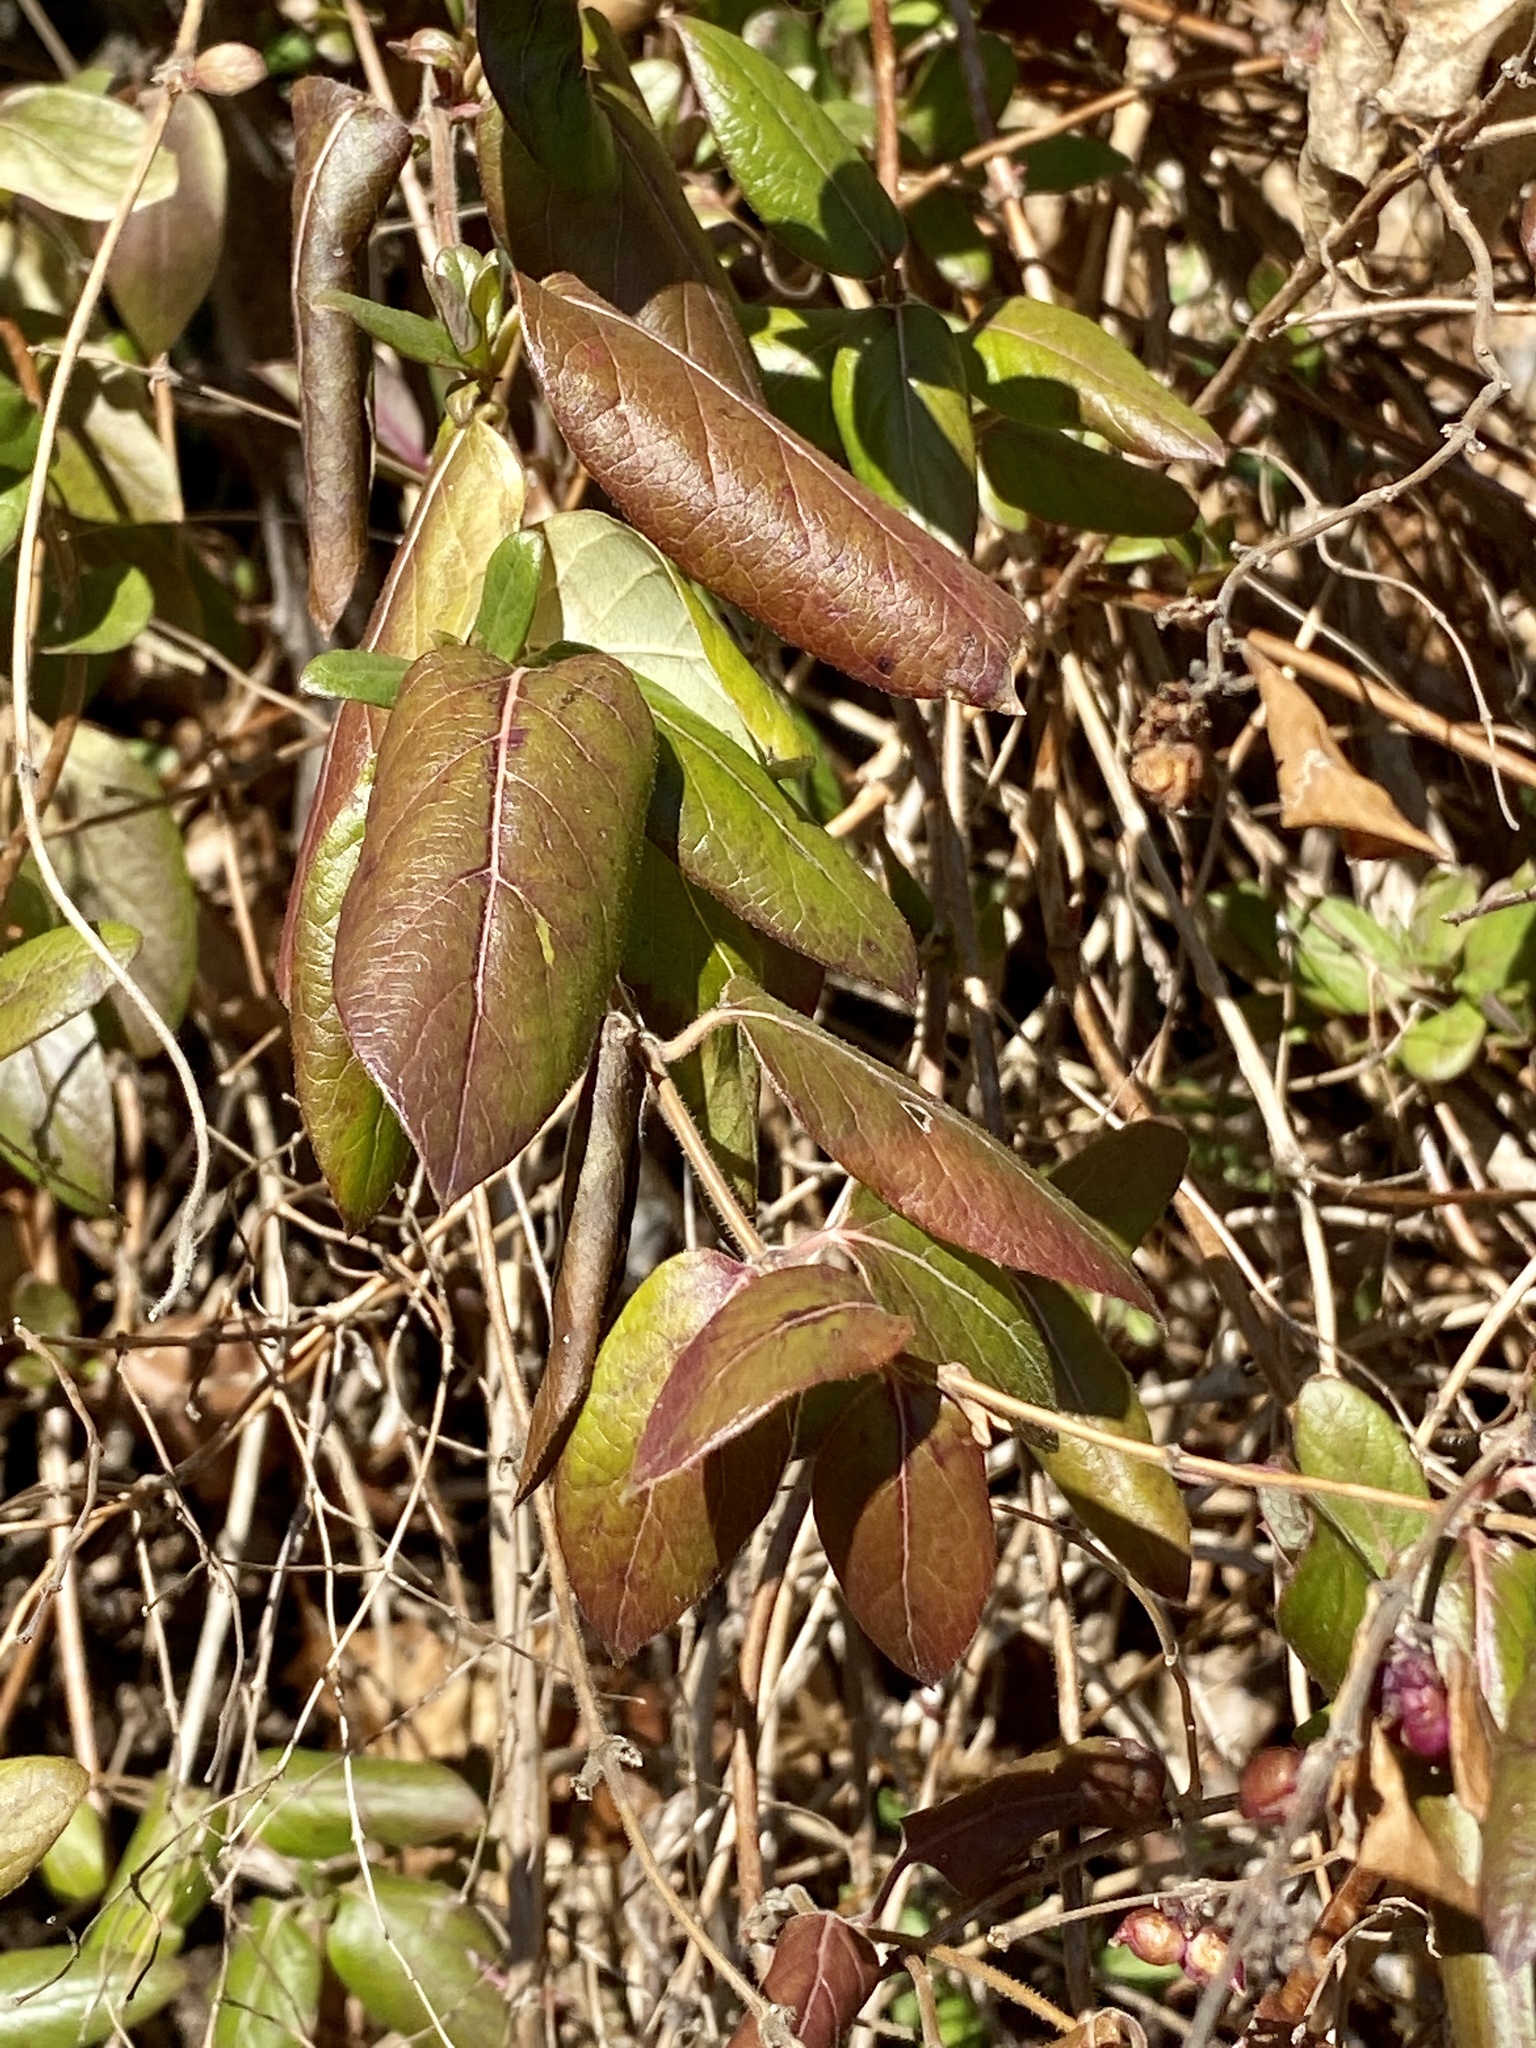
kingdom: Plantae
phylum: Tracheophyta
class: Magnoliopsida
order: Dipsacales
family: Caprifoliaceae
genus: Lonicera
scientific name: Lonicera japonica
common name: Japanese honeysuckle
